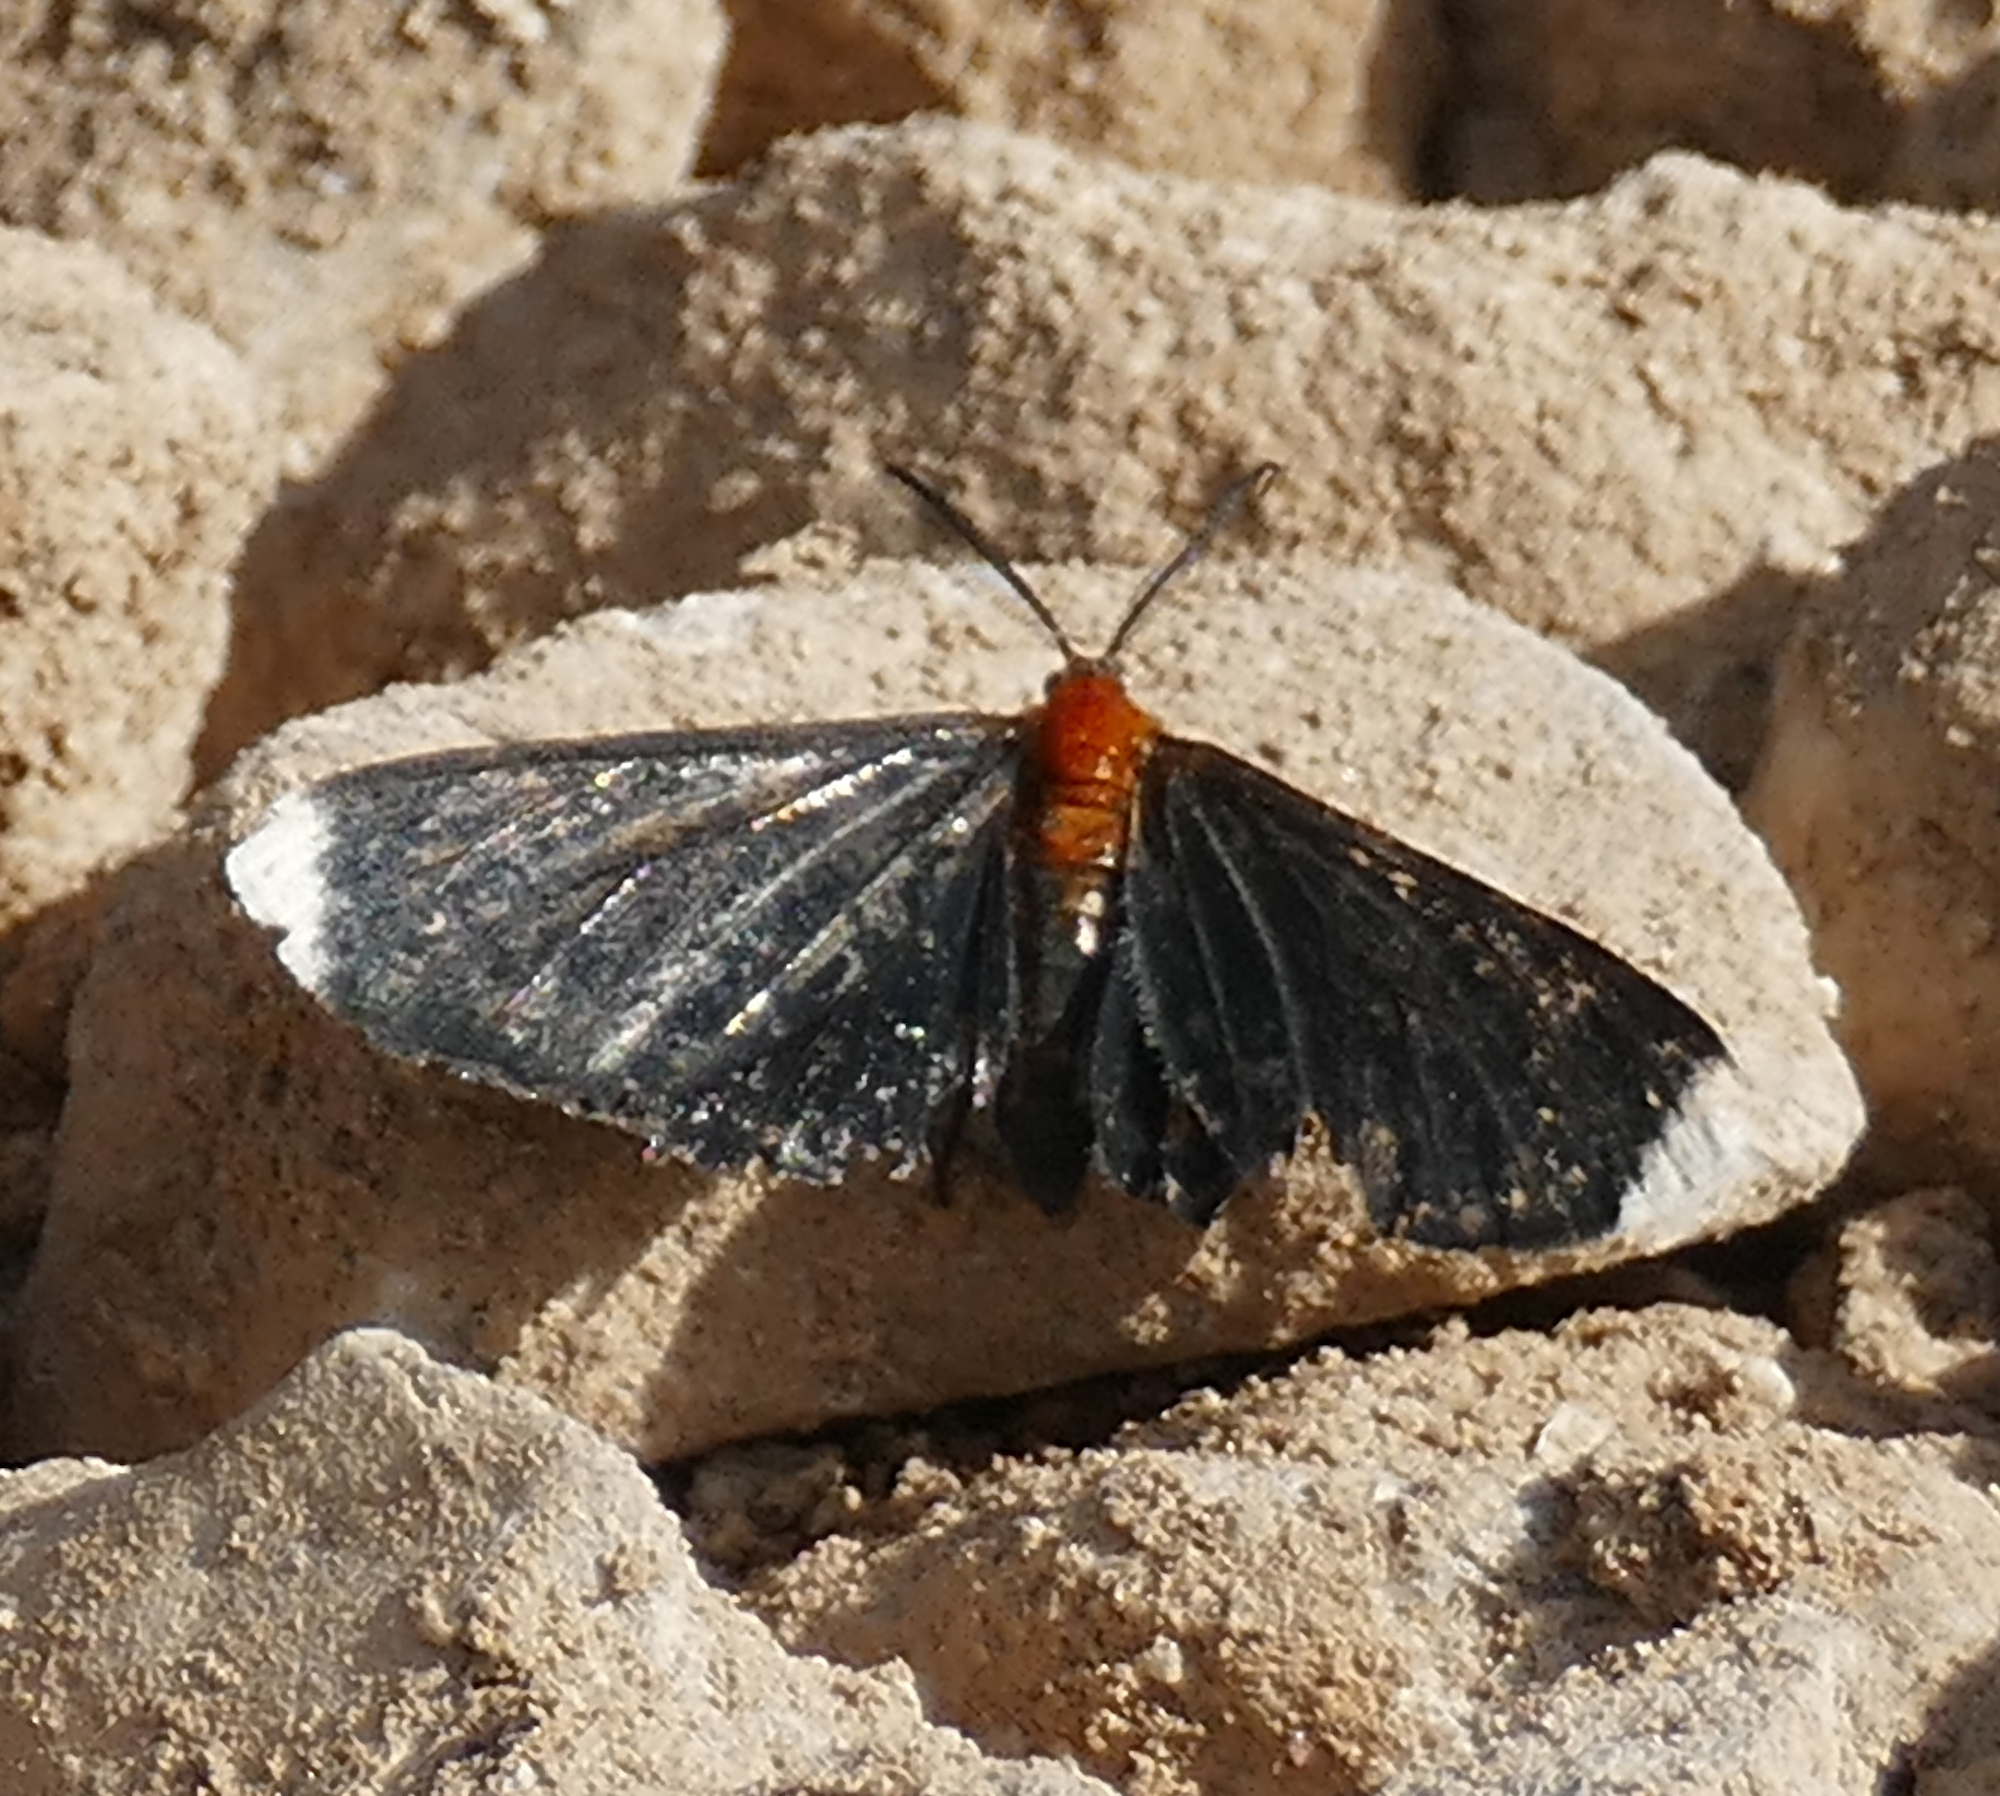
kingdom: Animalia
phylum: Arthropoda
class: Insecta
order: Lepidoptera
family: Geometridae
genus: Melanchroia
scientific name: Melanchroia chephise
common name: White-tipped black
